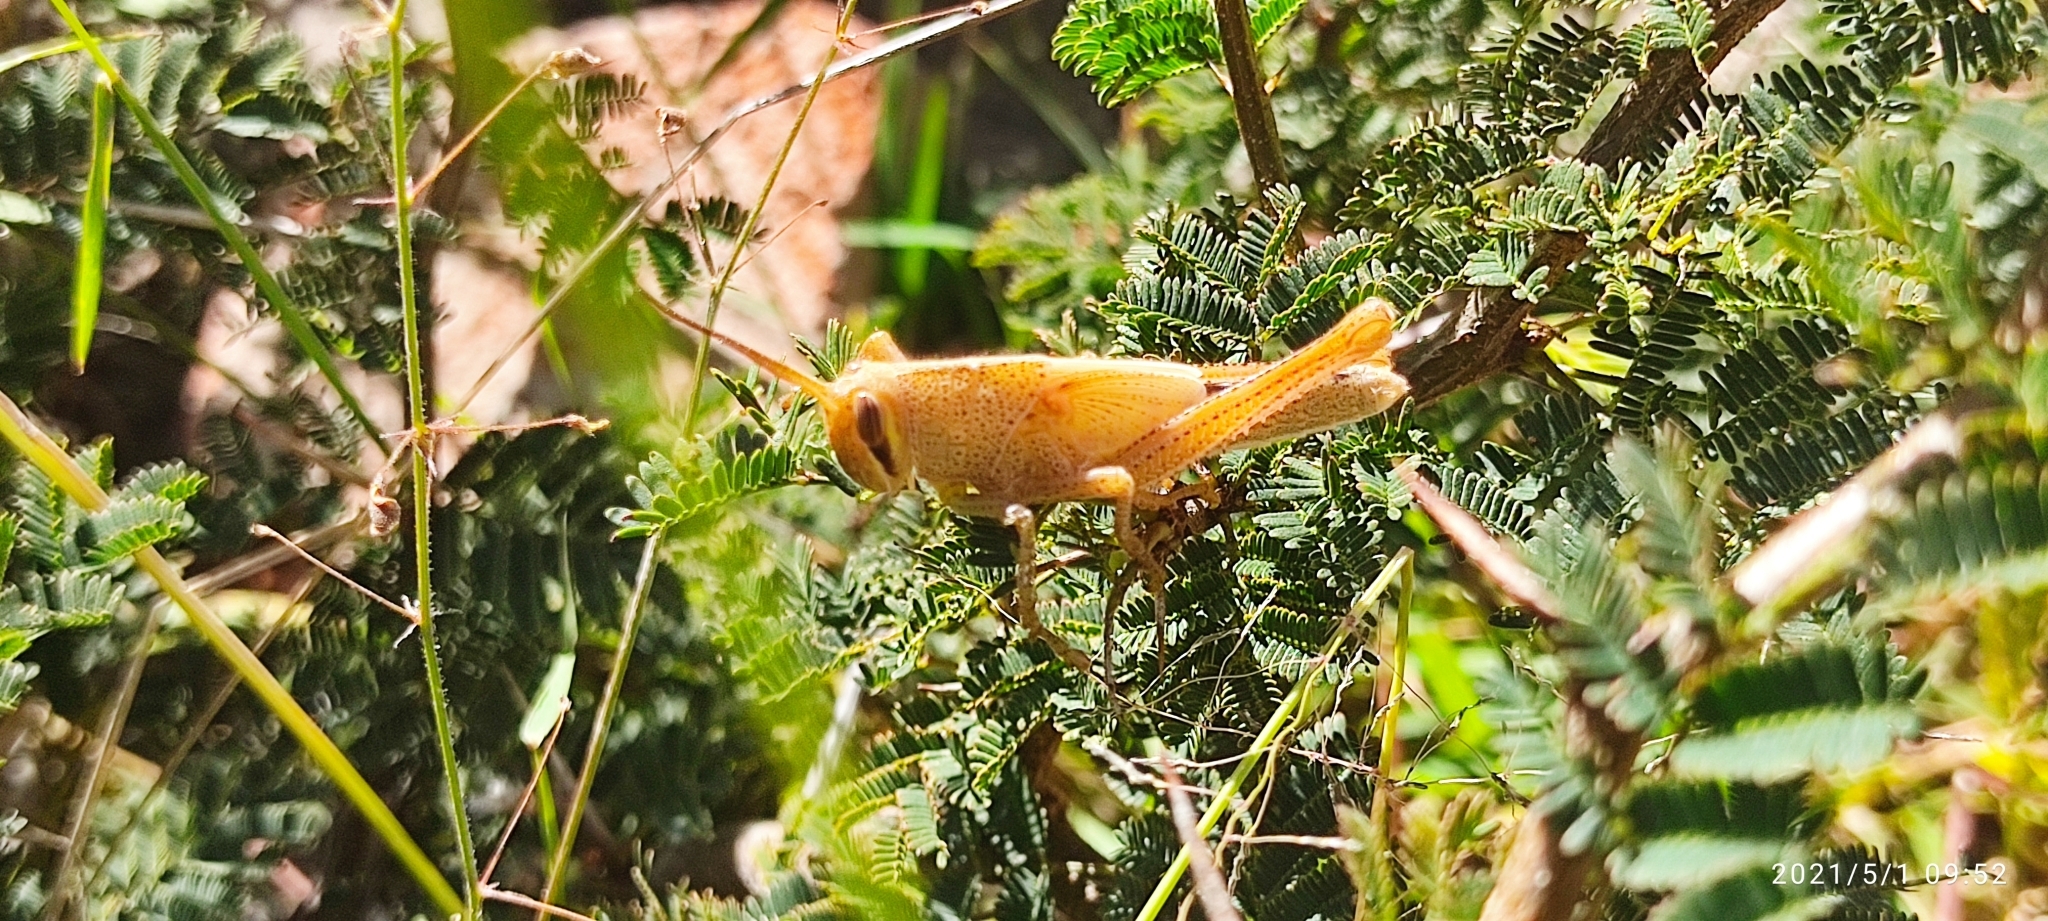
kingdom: Animalia
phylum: Arthropoda
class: Insecta
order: Orthoptera
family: Acrididae
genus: Schistocerca
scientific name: Schistocerca piceifrons
